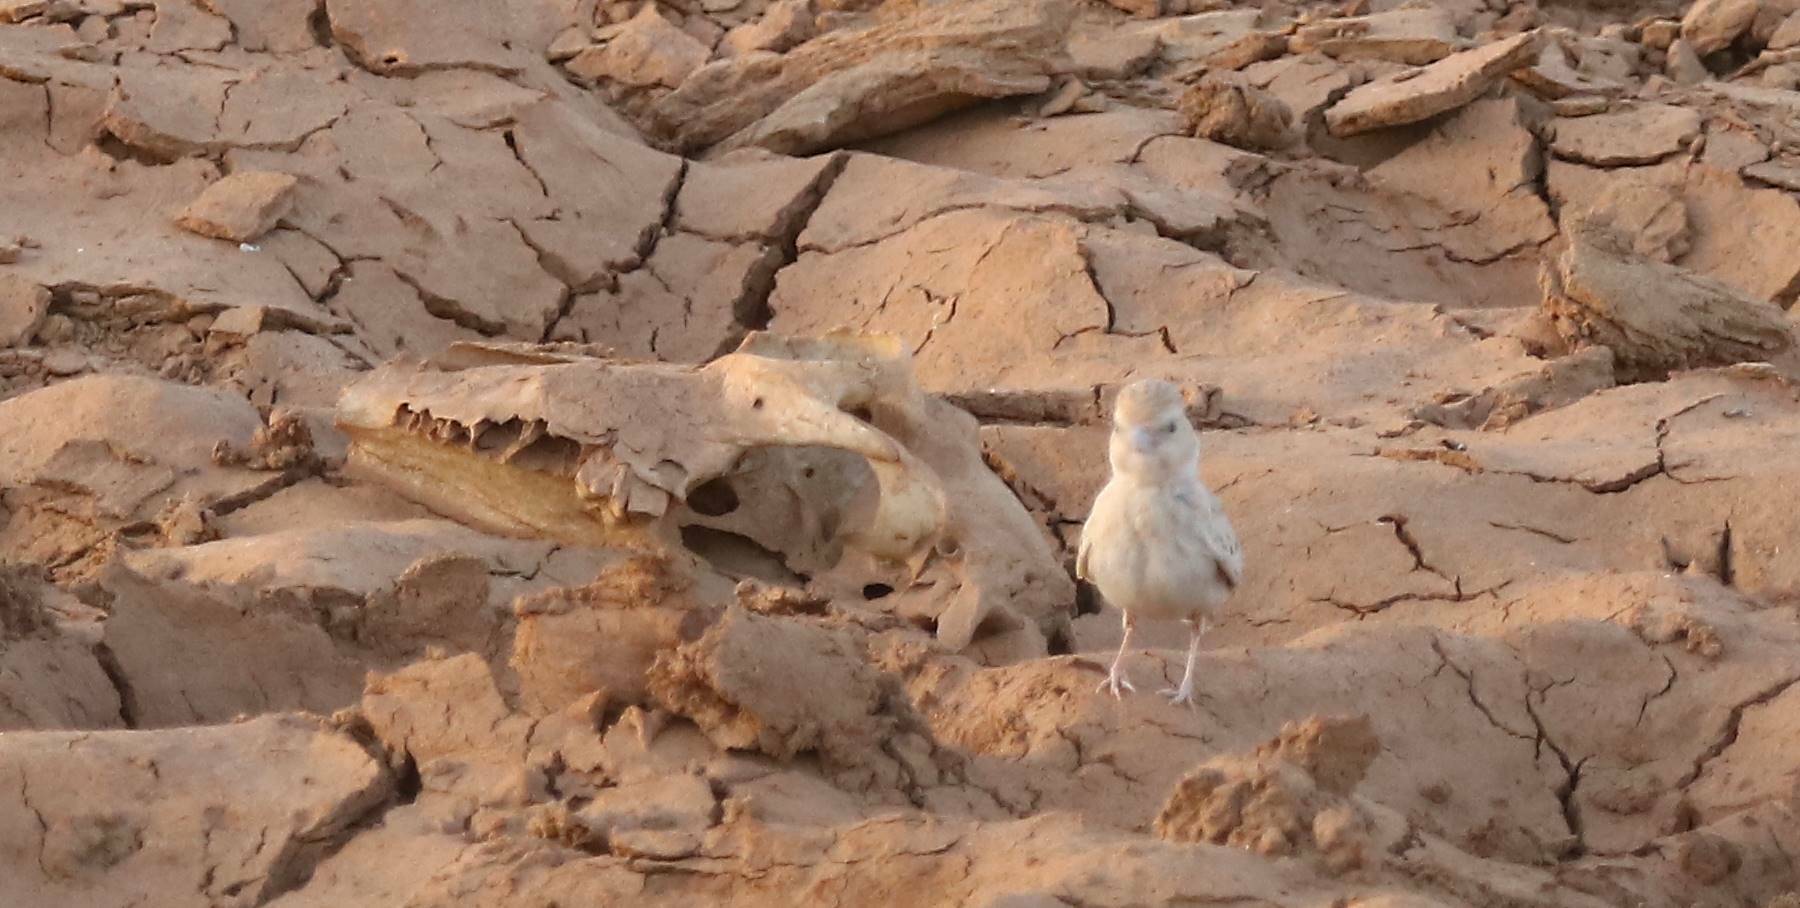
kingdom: Animalia
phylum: Chordata
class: Aves
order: Passeriformes
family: Alaudidae
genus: Eremopterix
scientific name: Eremopterix nigriceps
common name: Black-crowned sparrow-lark
